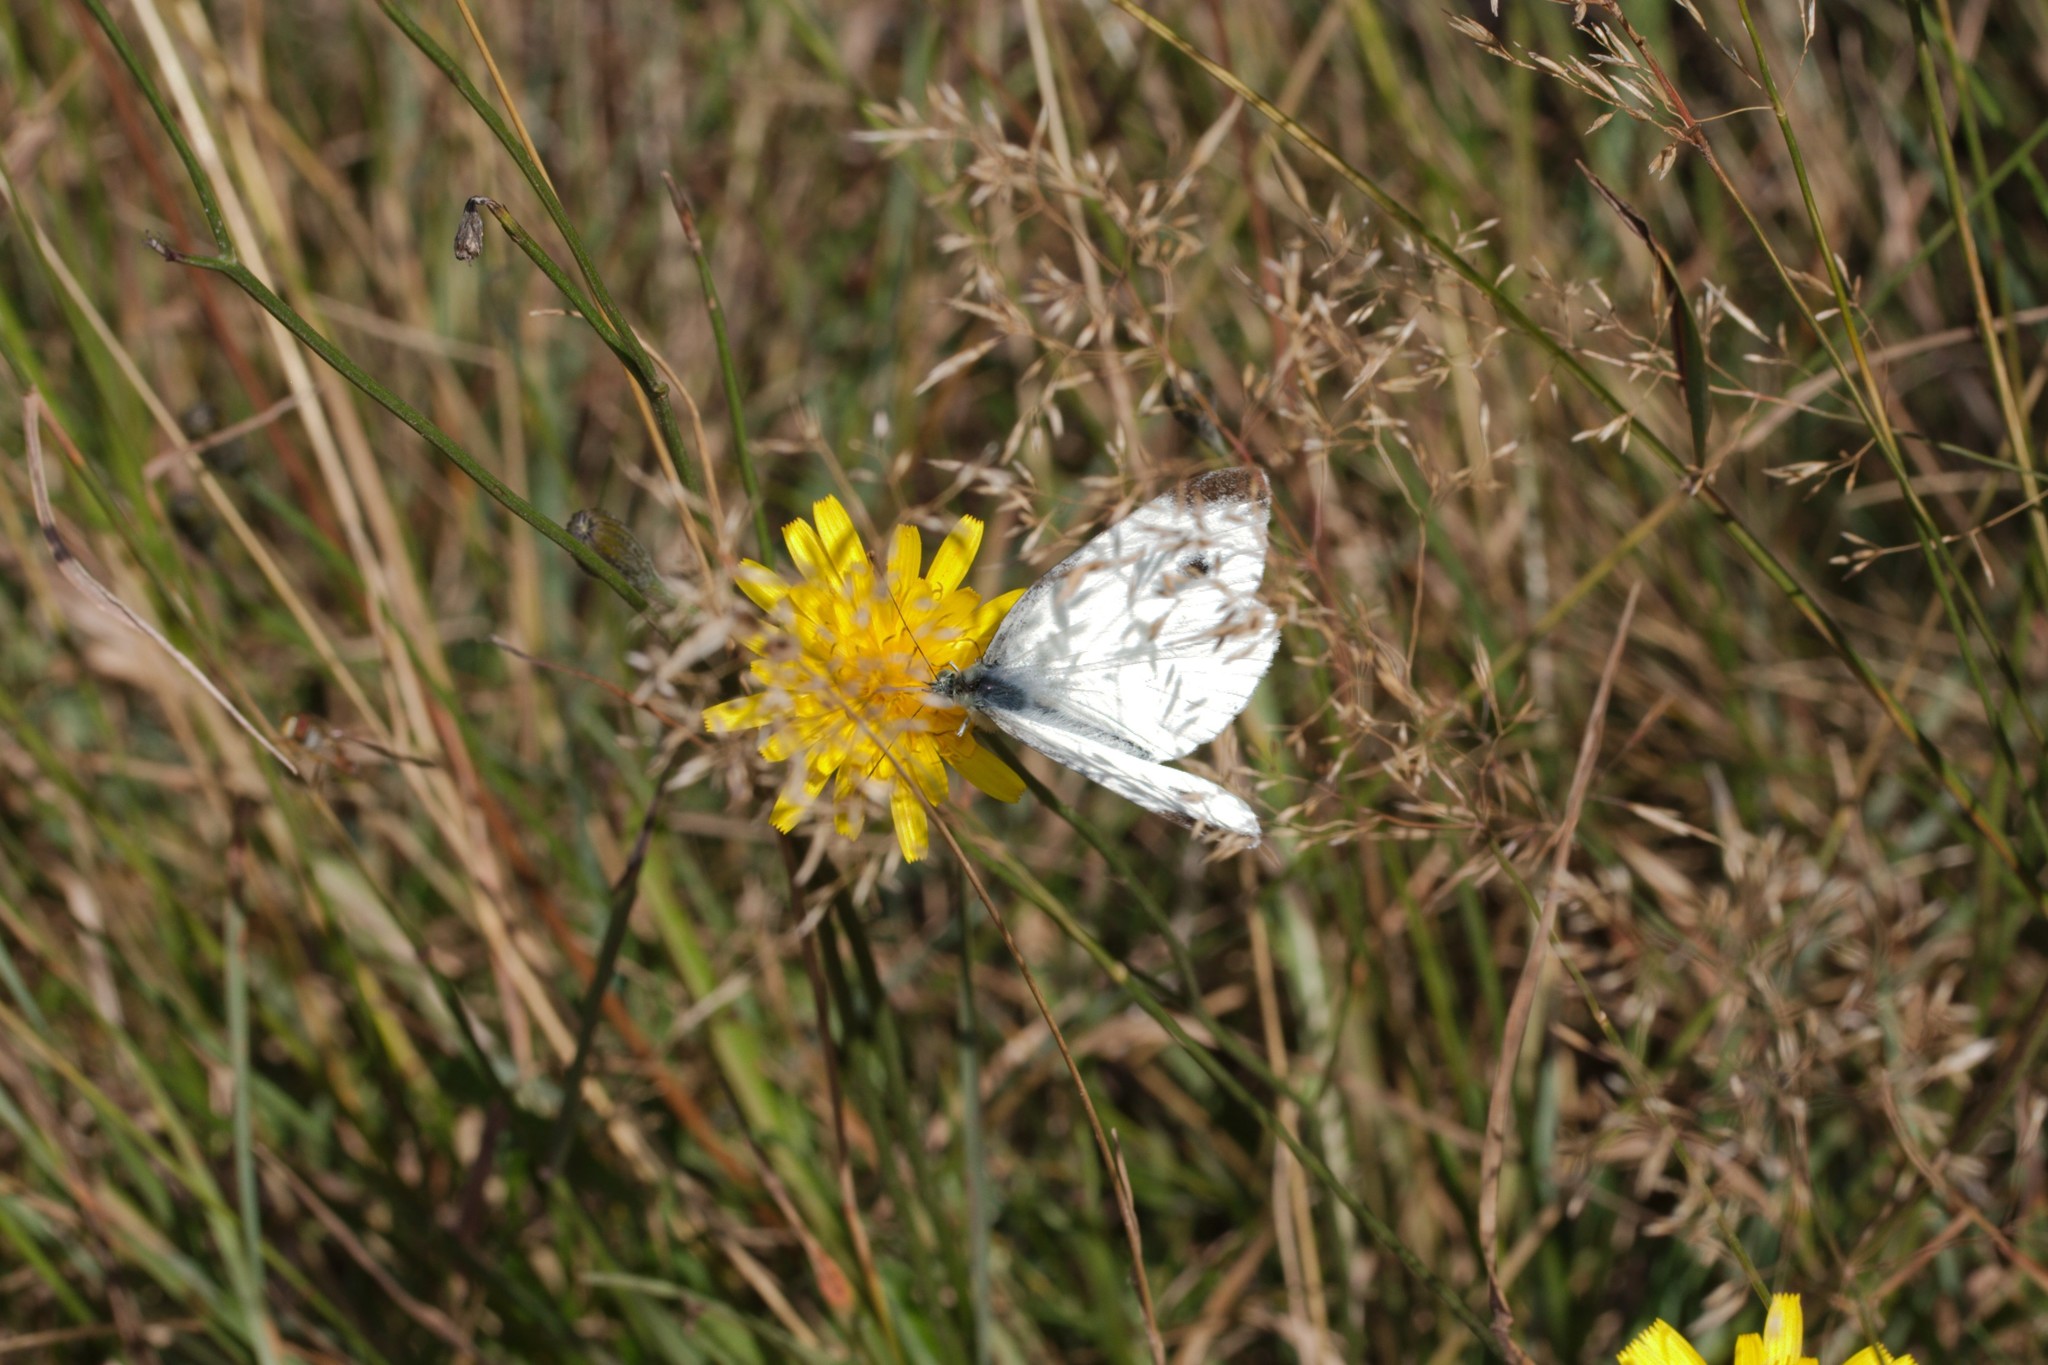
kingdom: Animalia
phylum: Arthropoda
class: Insecta
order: Lepidoptera
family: Pieridae
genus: Pieris
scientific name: Pieris rapae
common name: Small white
